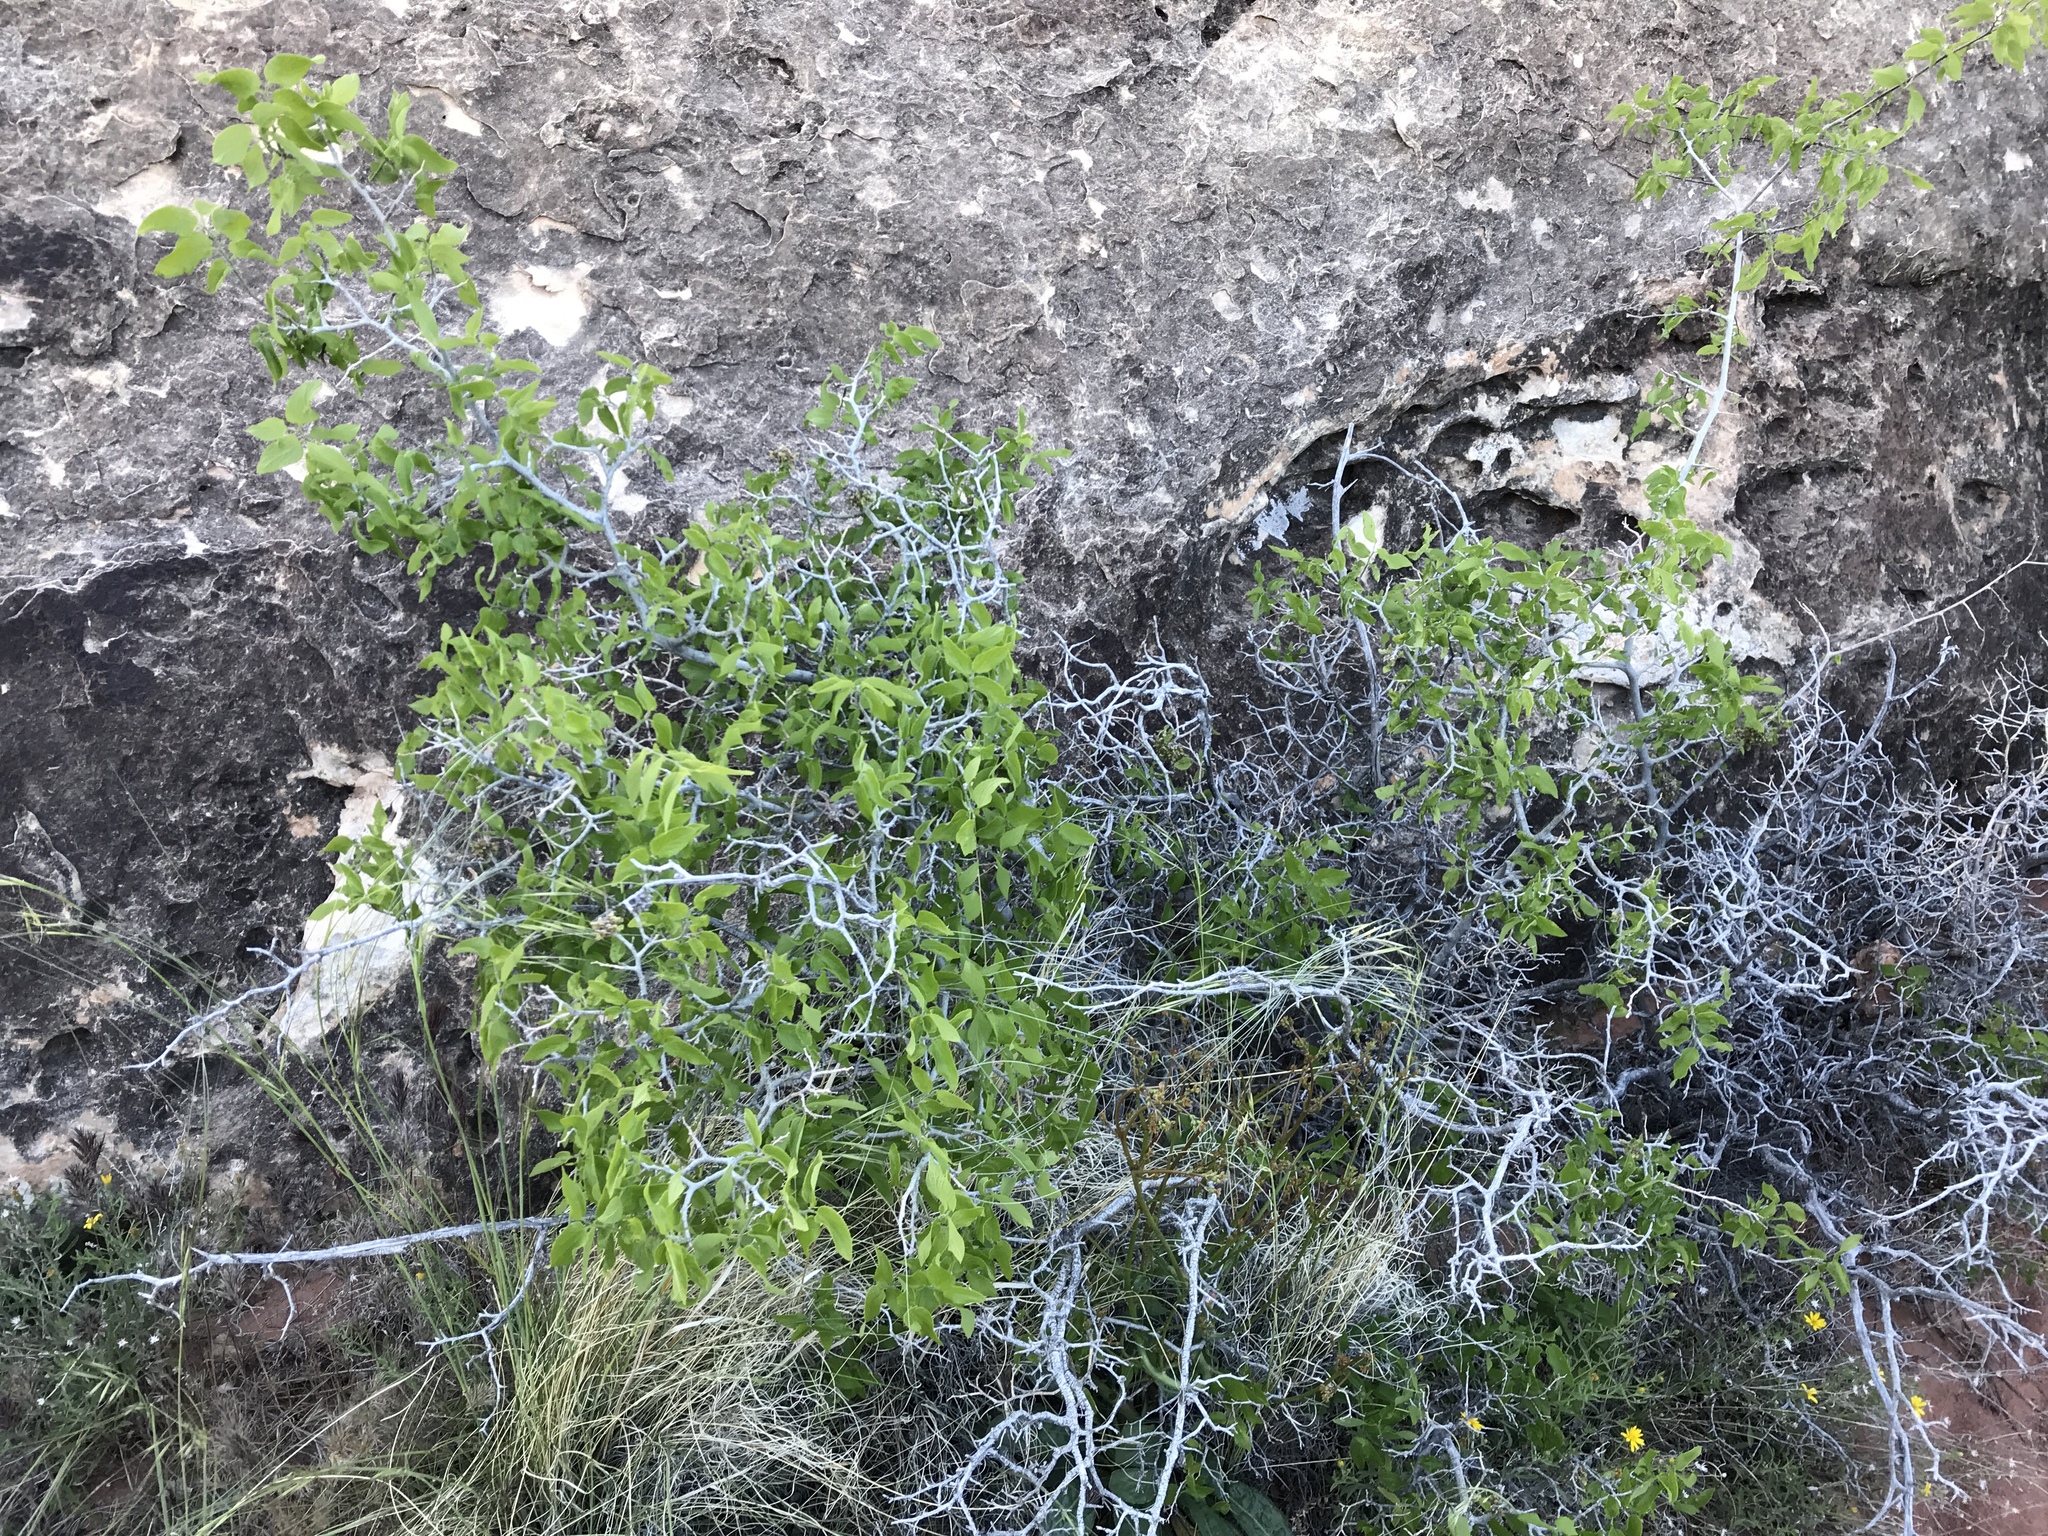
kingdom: Plantae
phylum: Tracheophyta
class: Magnoliopsida
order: Rosales
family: Cannabaceae
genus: Celtis
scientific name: Celtis reticulata
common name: Netleaf hackberry
